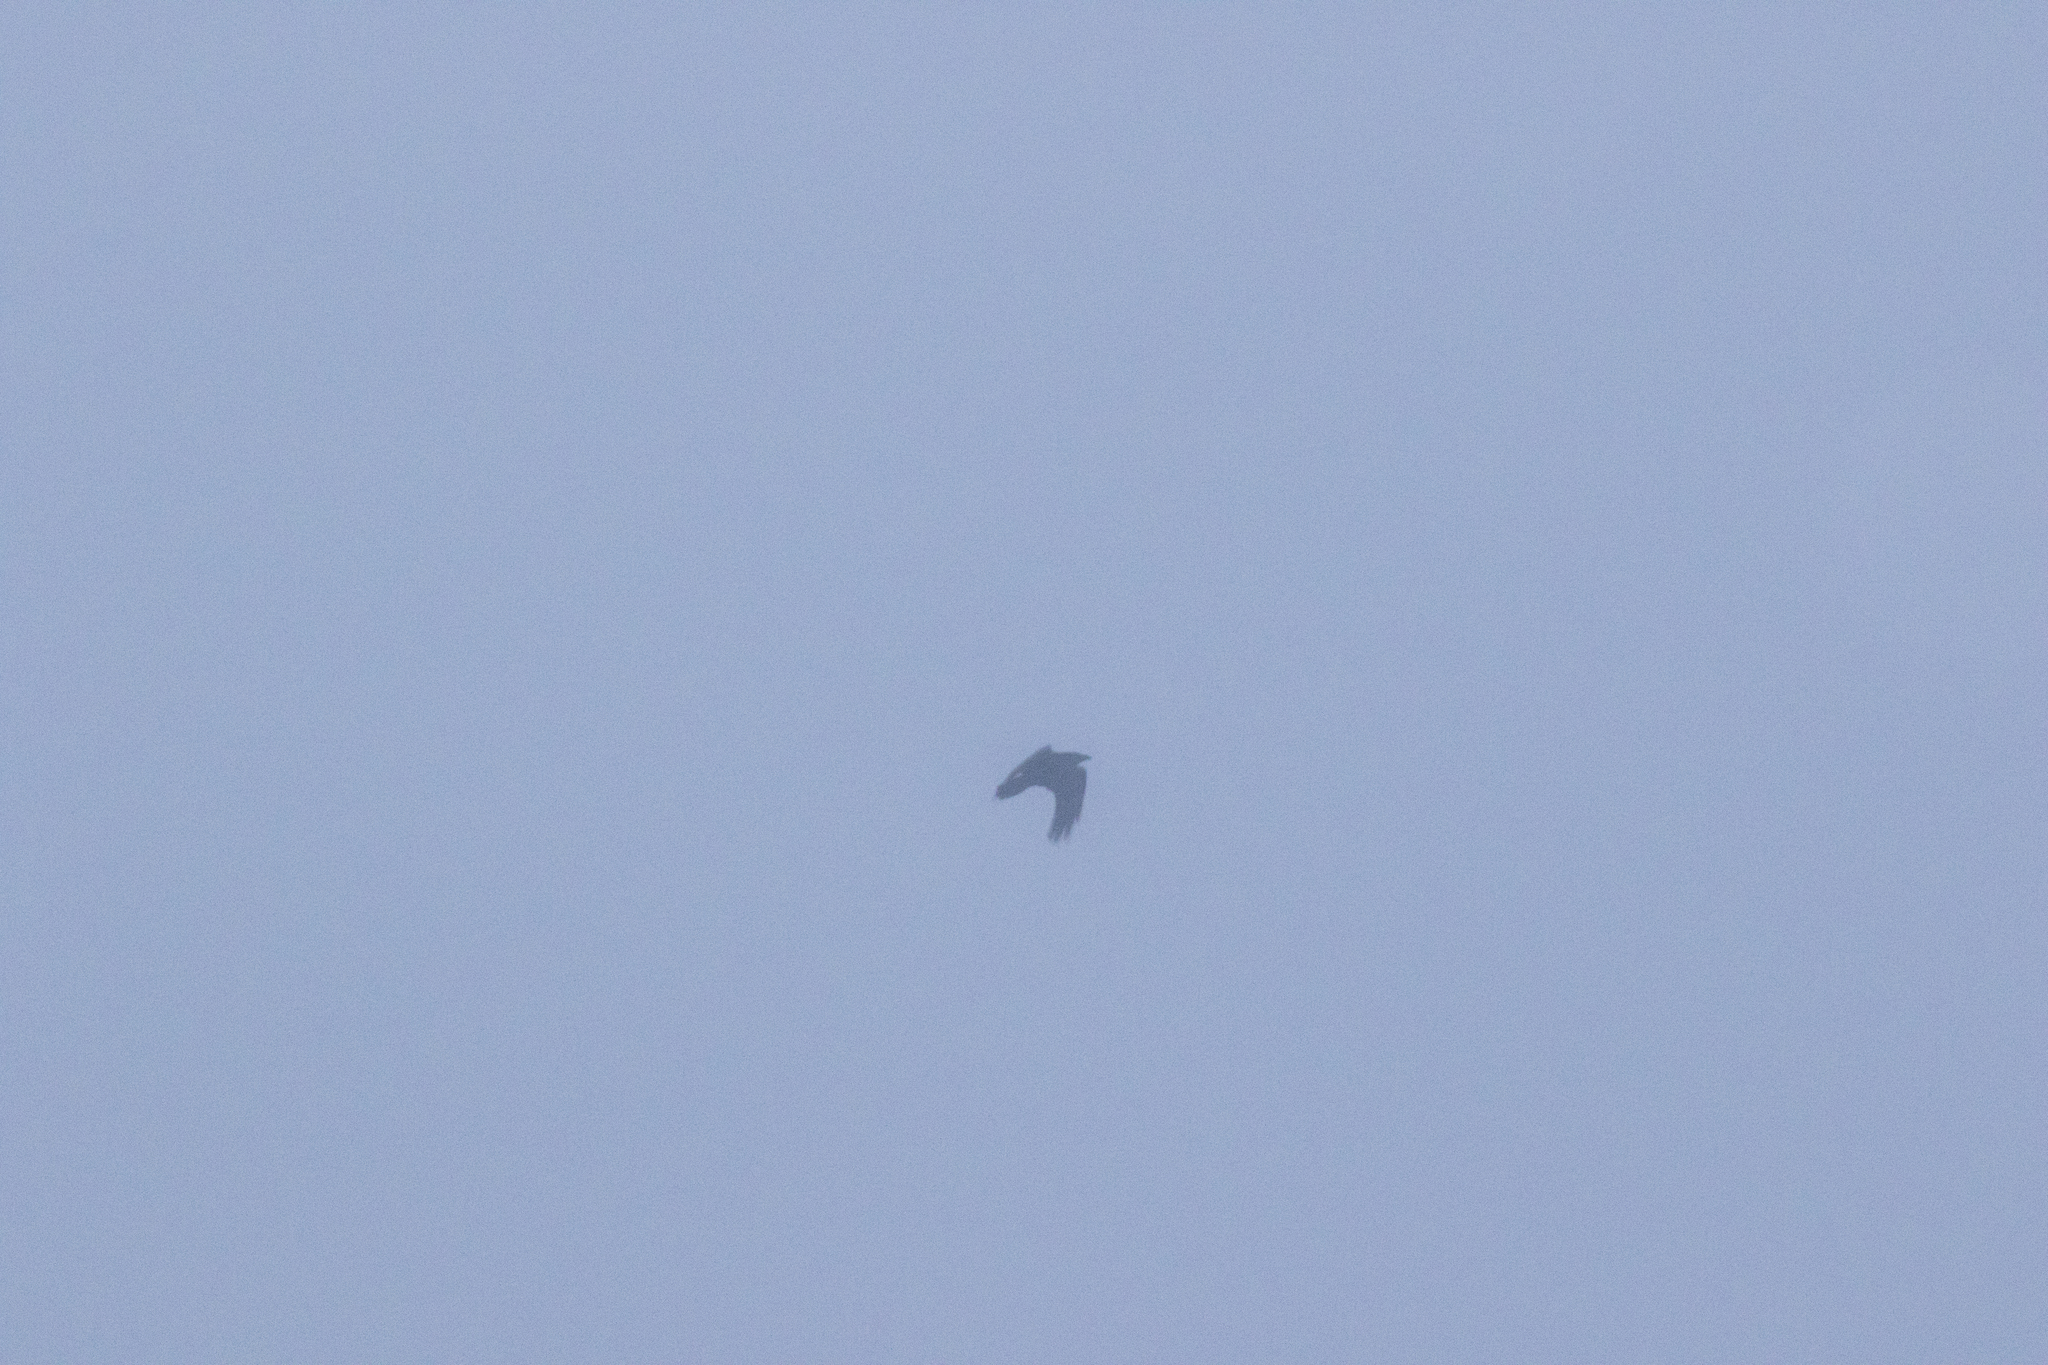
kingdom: Animalia
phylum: Chordata
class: Aves
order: Passeriformes
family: Corvidae
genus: Corvus
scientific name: Corvus corax
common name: Common raven
